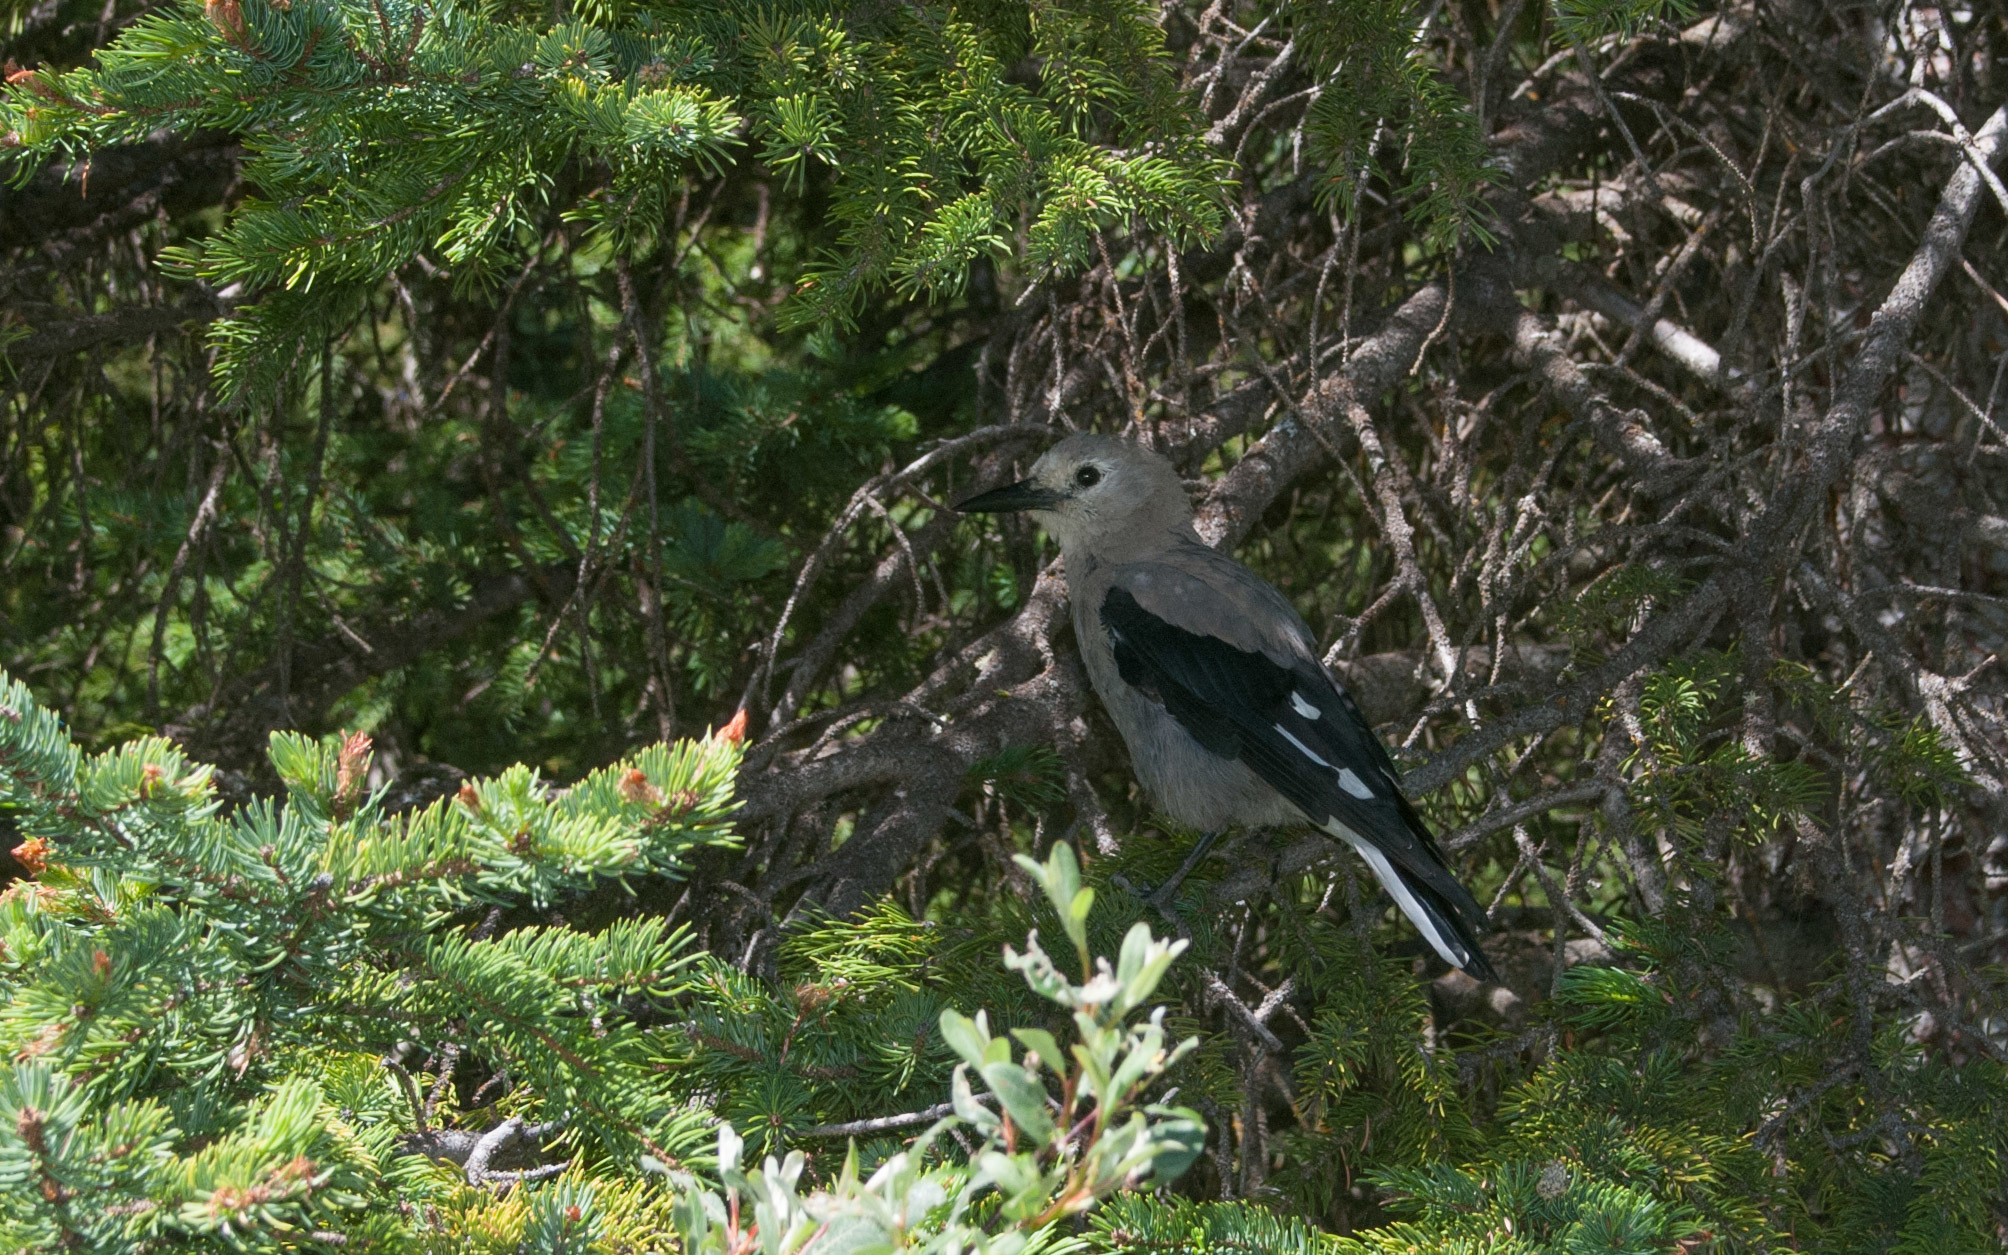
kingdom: Animalia
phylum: Chordata
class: Aves
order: Passeriformes
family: Corvidae
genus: Nucifraga
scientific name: Nucifraga columbiana
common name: Clark's nutcracker
